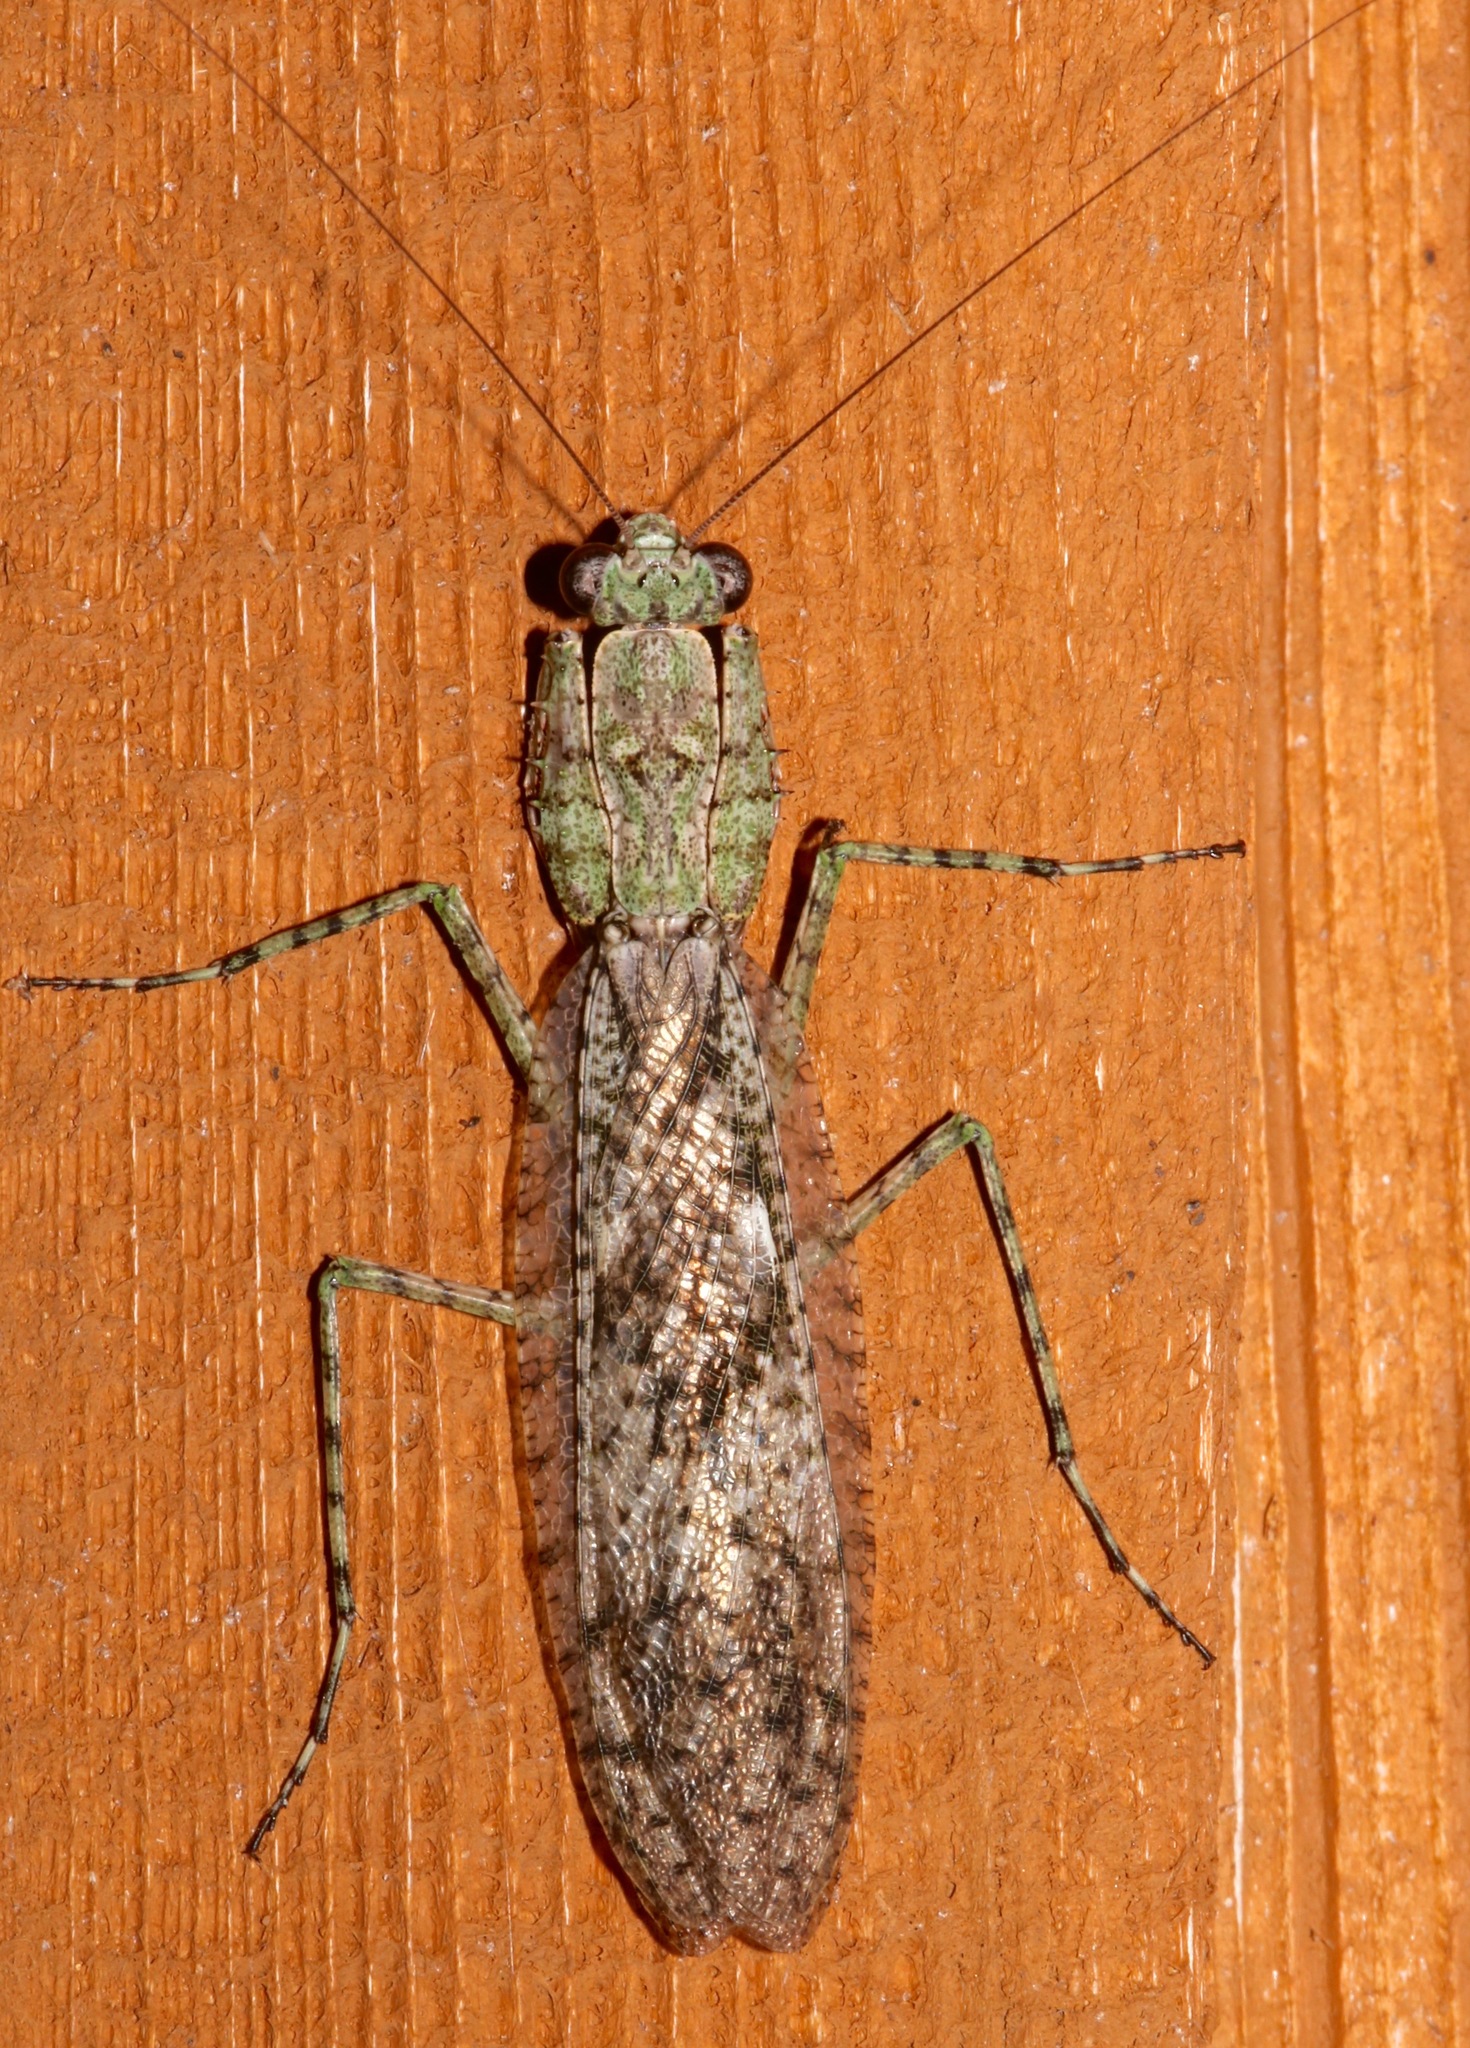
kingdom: Animalia
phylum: Arthropoda
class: Insecta
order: Mantodea
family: Epaphroditidae
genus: Gonatista
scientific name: Gonatista grisea
